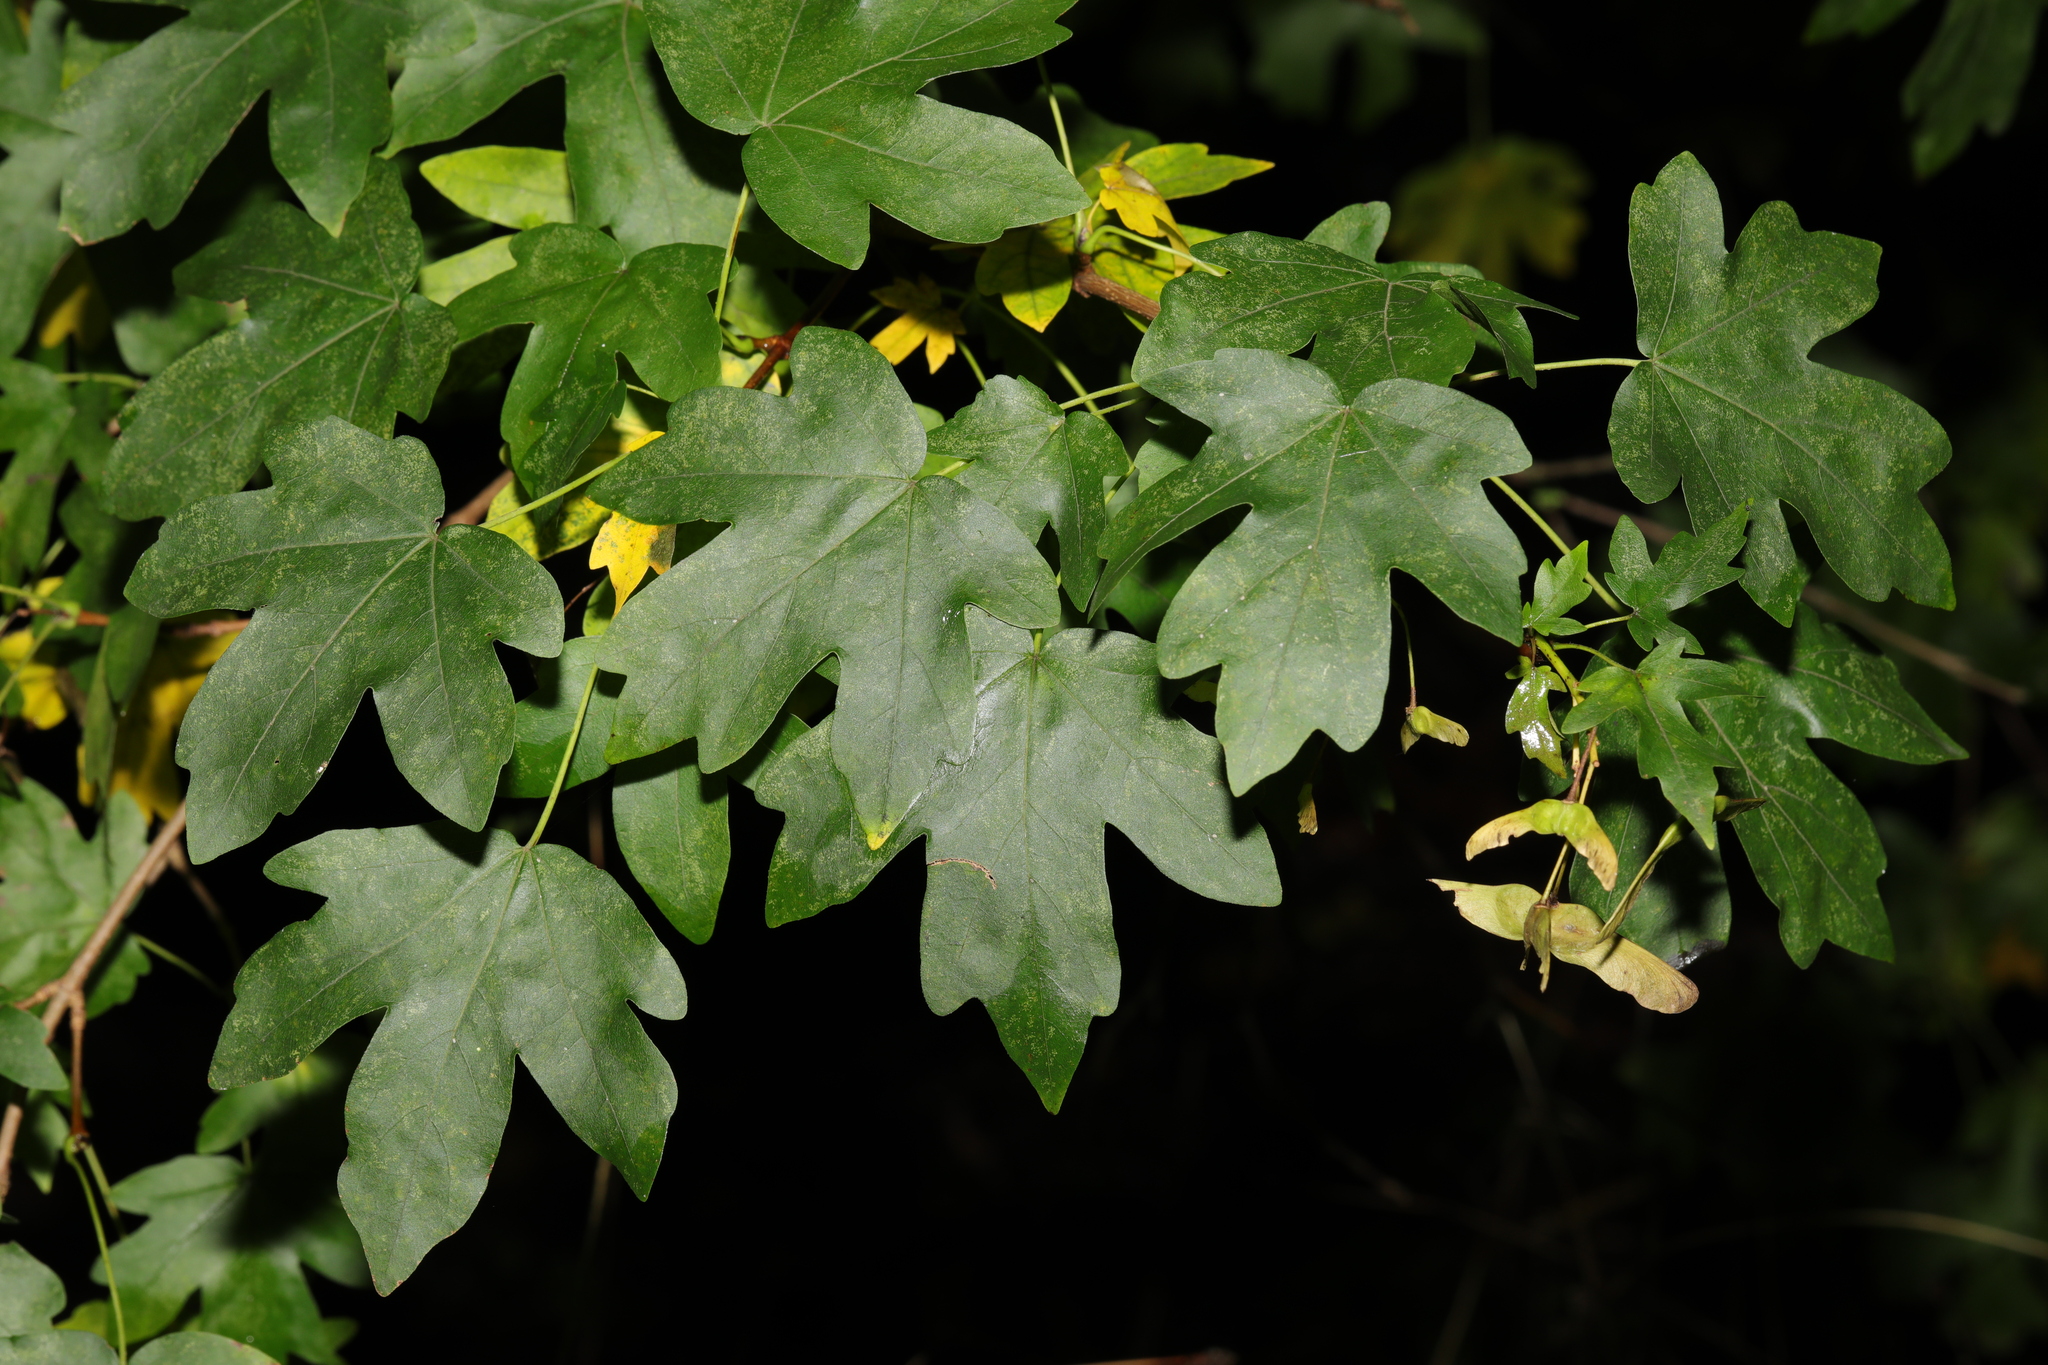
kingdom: Plantae
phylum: Tracheophyta
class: Magnoliopsida
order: Sapindales
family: Sapindaceae
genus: Acer
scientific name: Acer campestre
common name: Field maple
